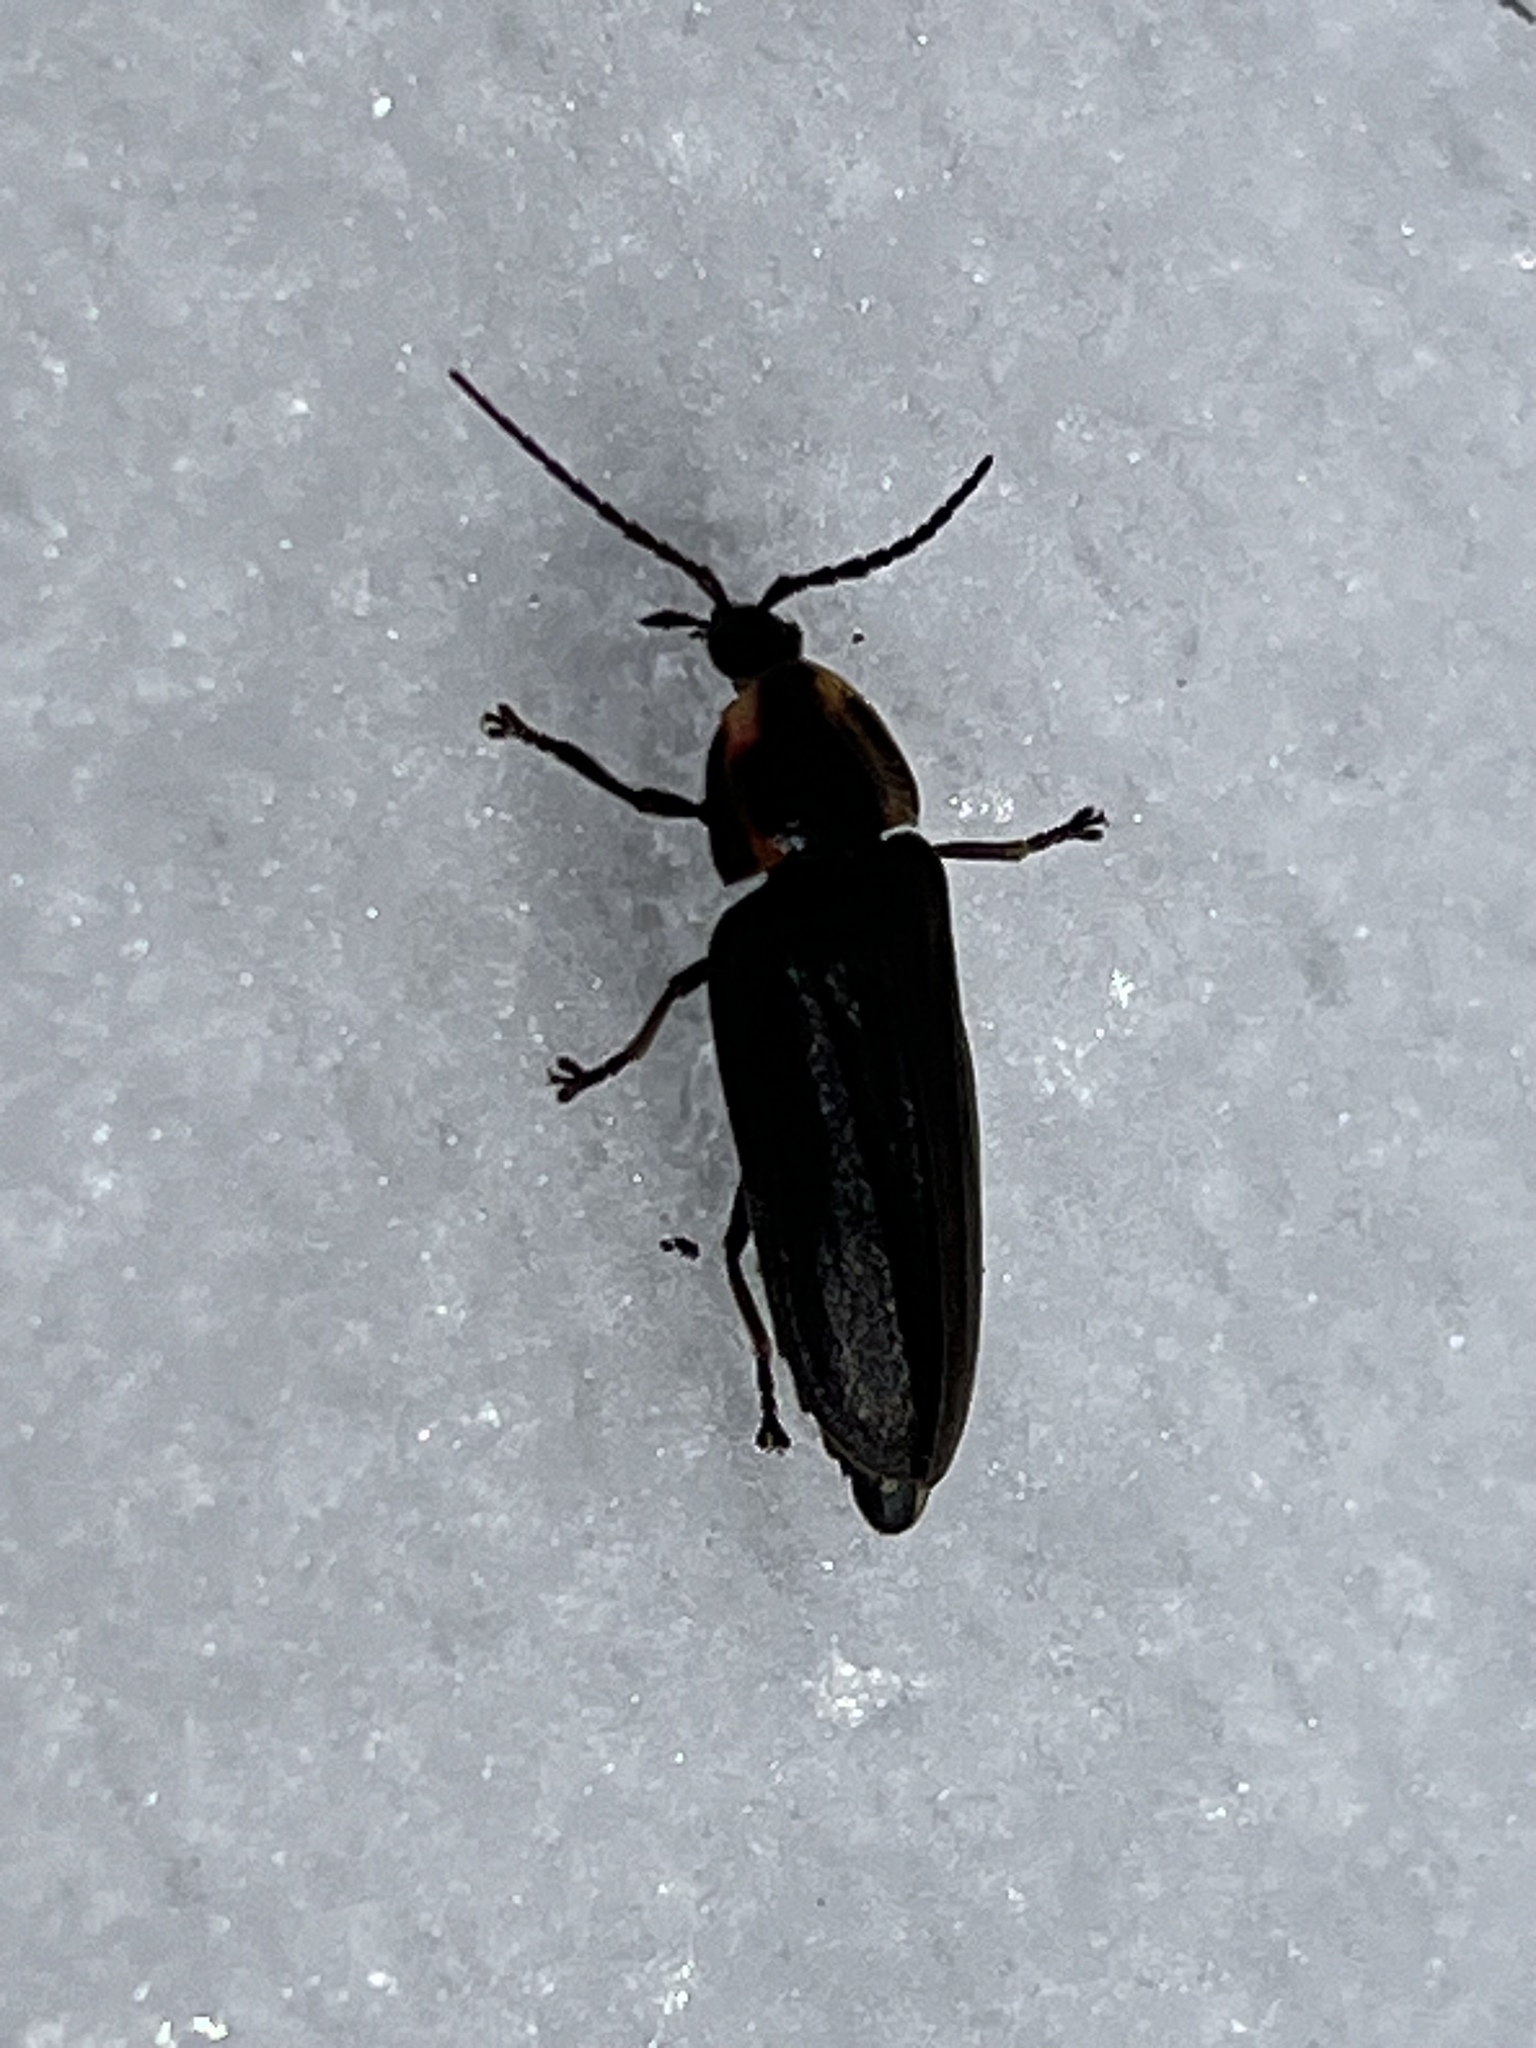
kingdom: Animalia
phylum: Arthropoda
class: Insecta
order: Coleoptera
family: Lampyridae
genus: Photinus
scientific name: Photinus corrusca
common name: Winter firefly
